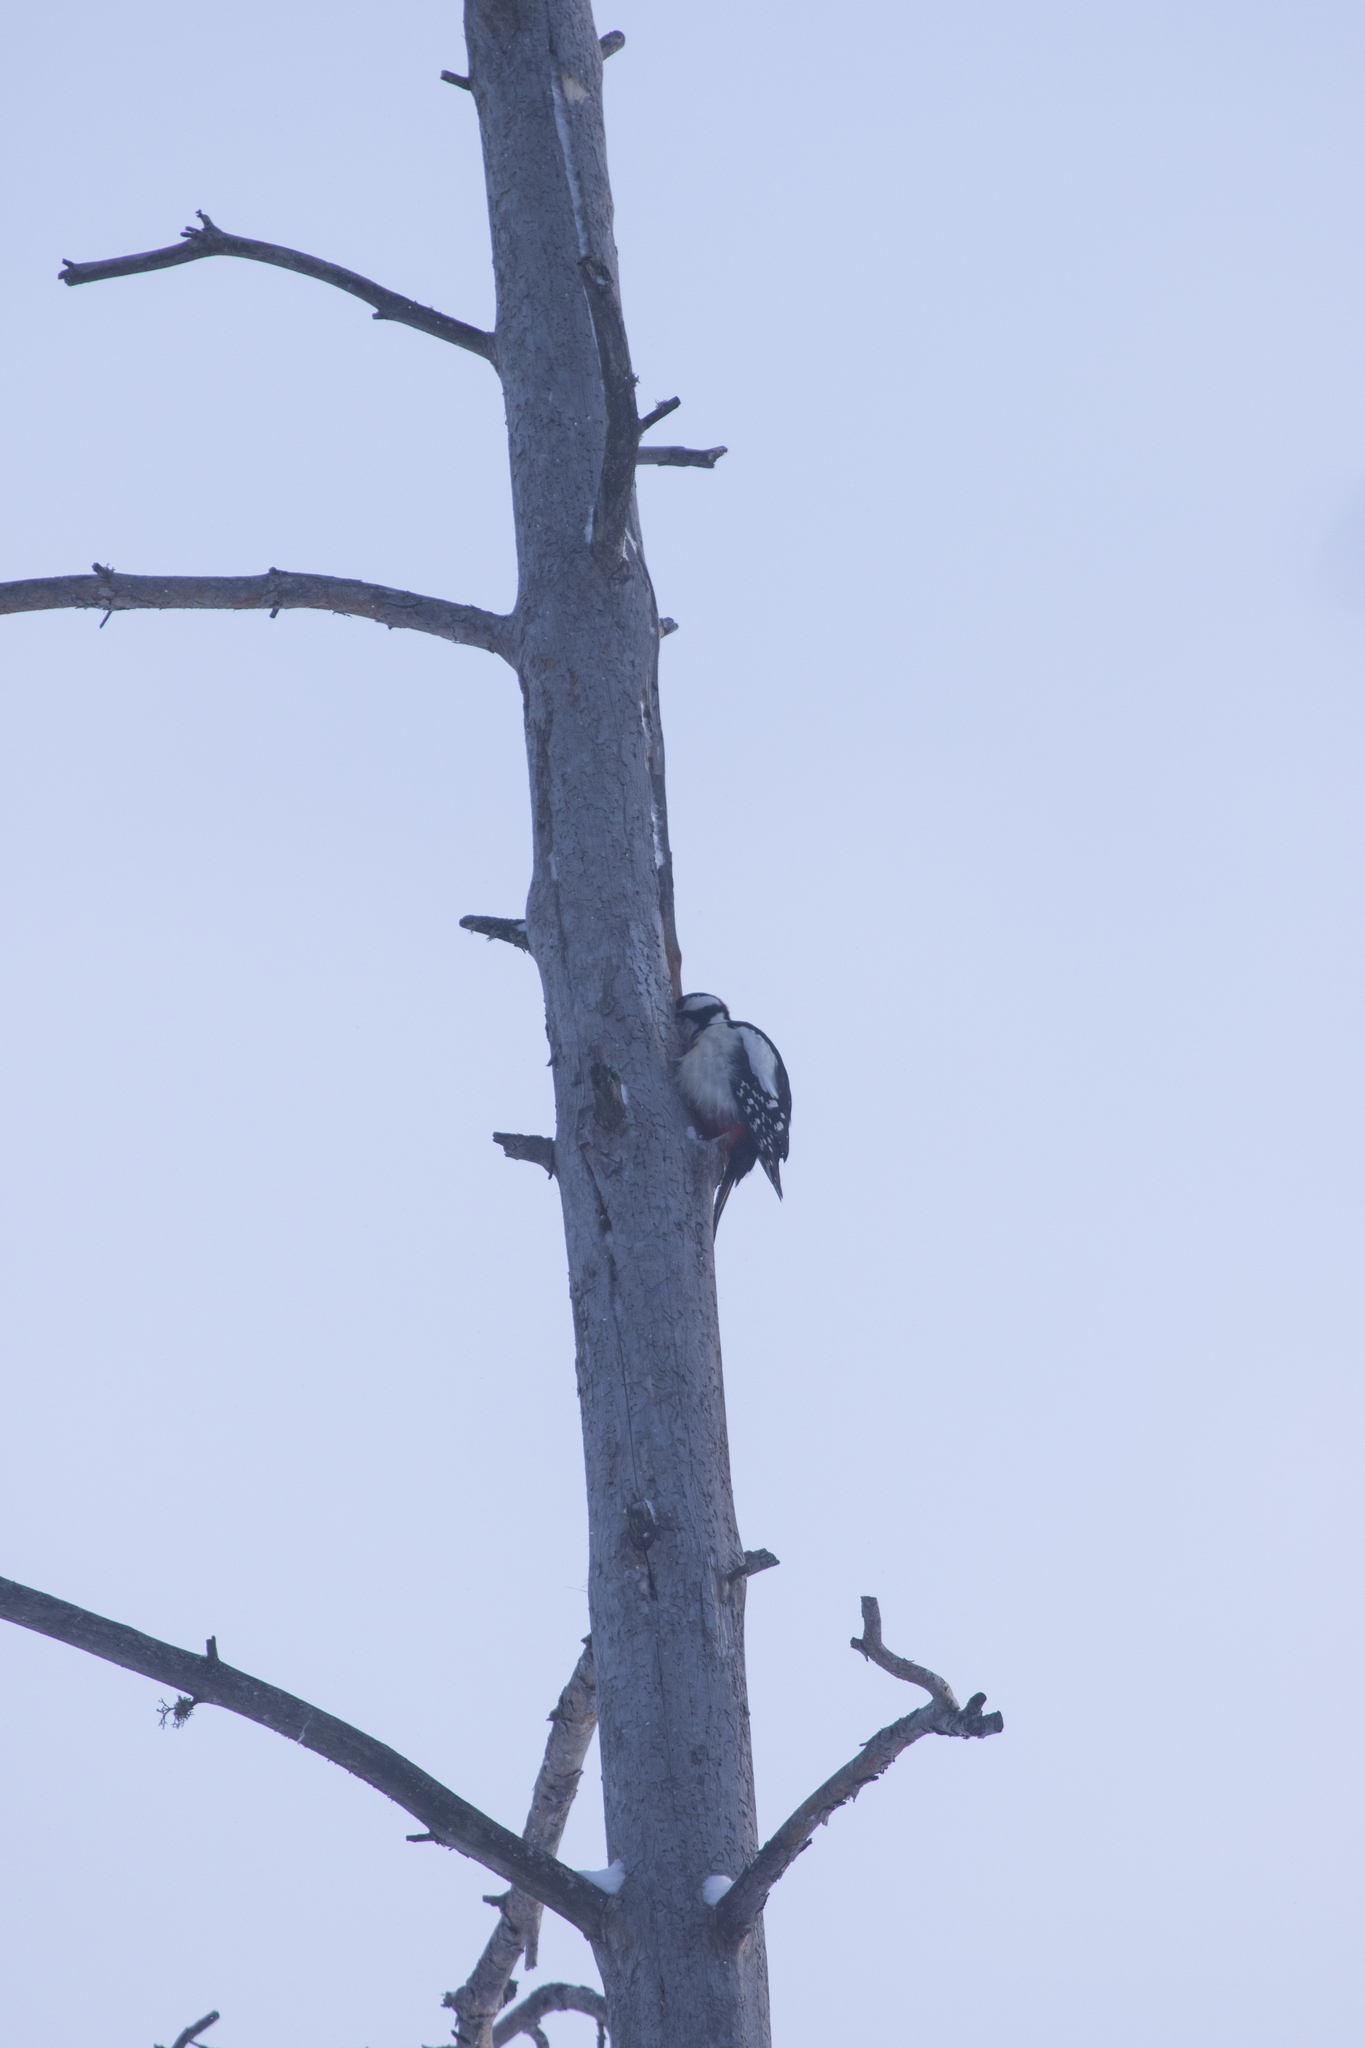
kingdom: Animalia
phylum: Chordata
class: Aves
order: Piciformes
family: Picidae
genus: Dendrocopos
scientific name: Dendrocopos major
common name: Great spotted woodpecker
